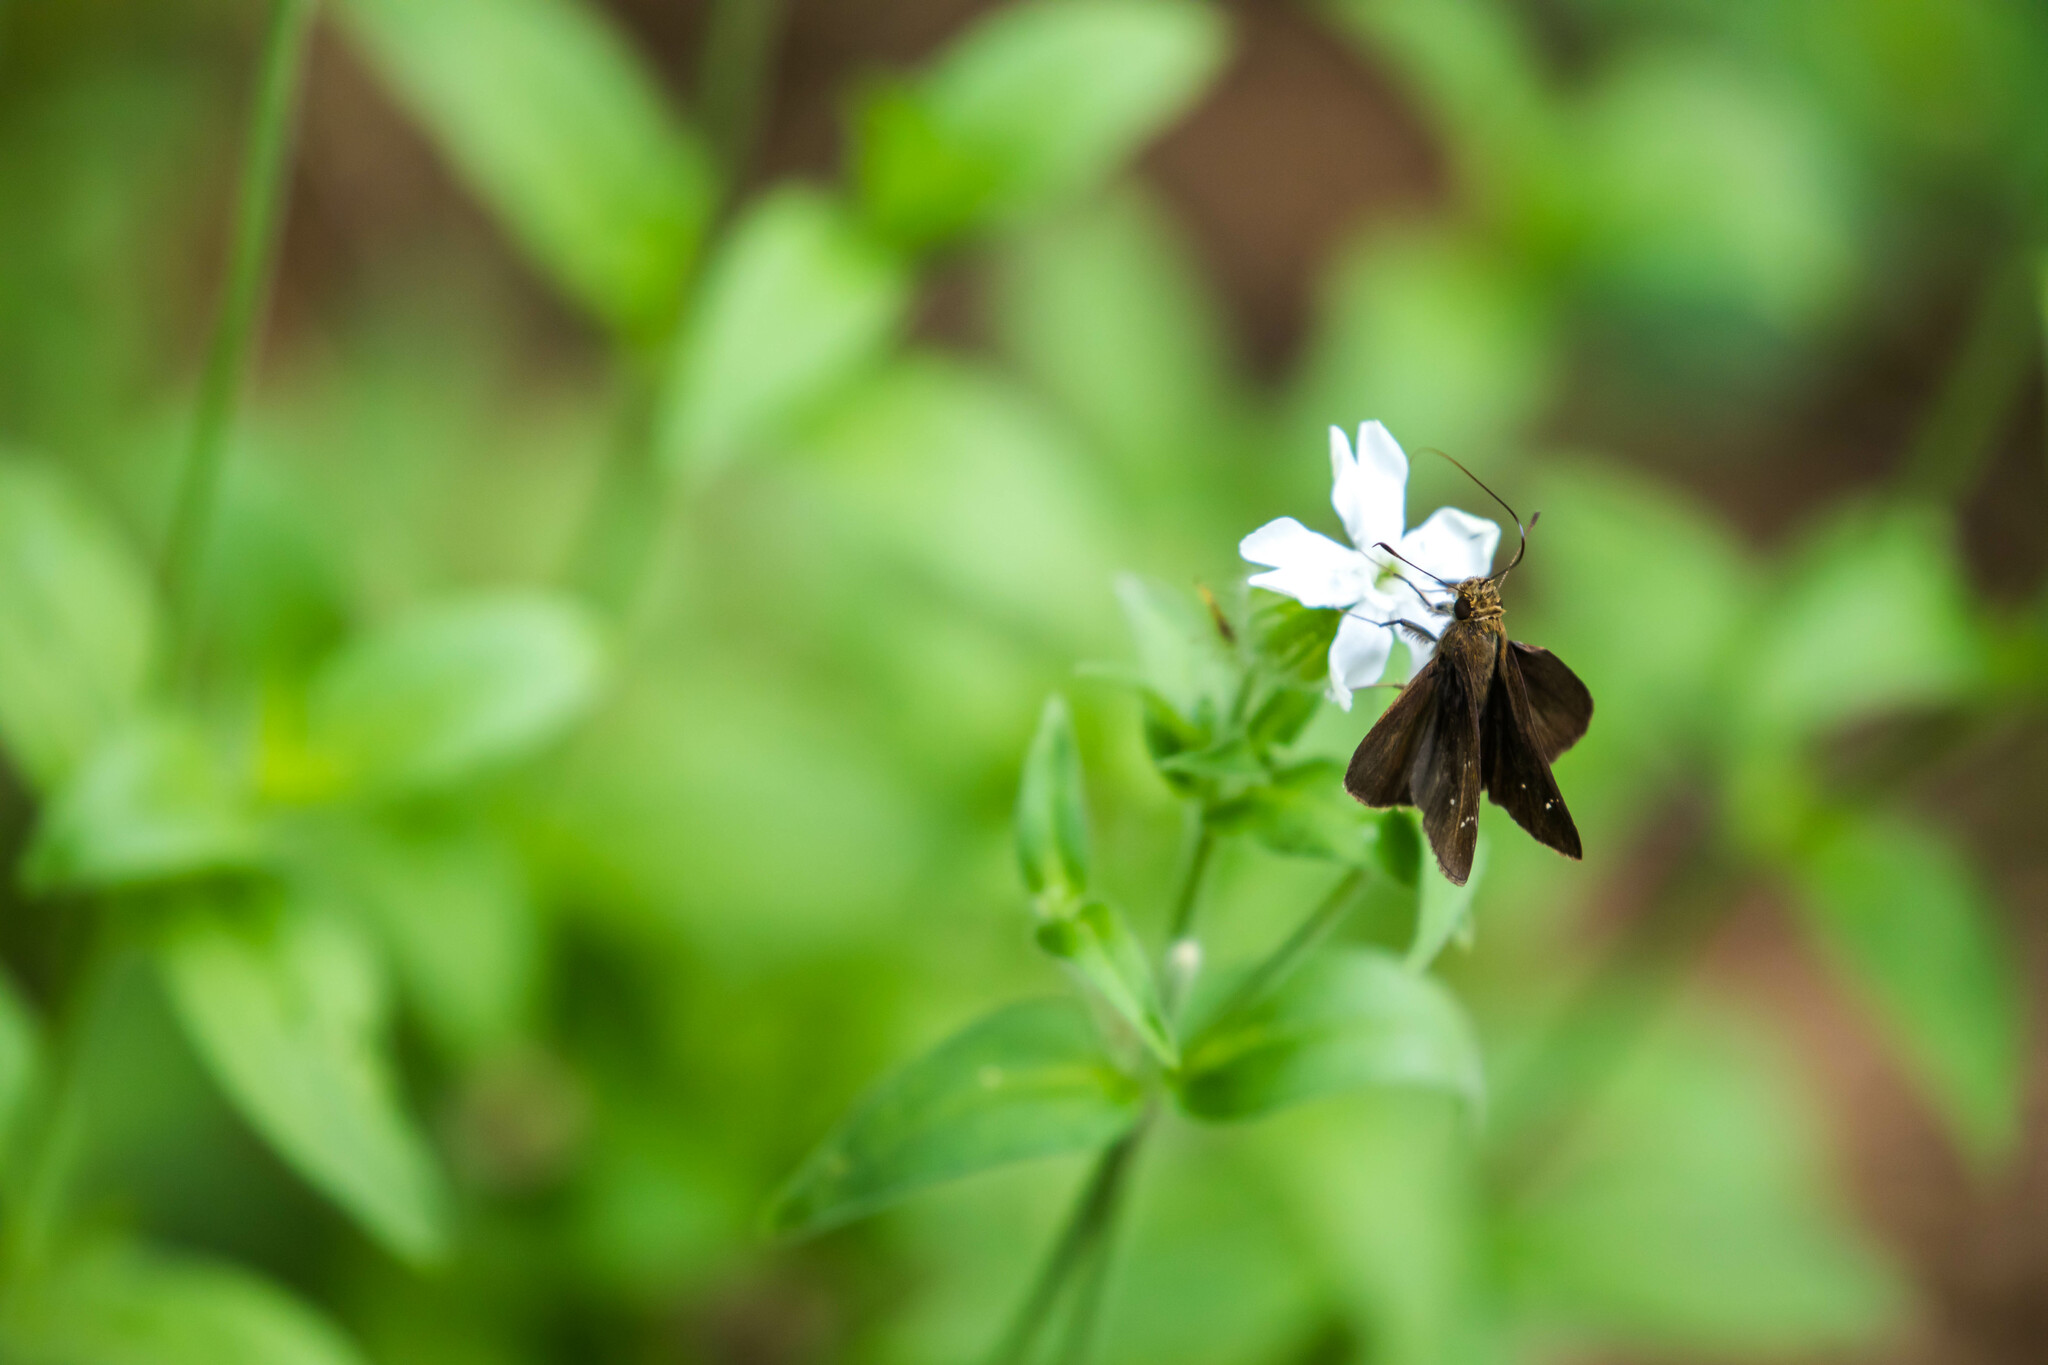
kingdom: Animalia
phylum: Arthropoda
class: Insecta
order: Lepidoptera
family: Hesperiidae
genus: Lerema
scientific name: Lerema accius
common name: Clouded skipper
